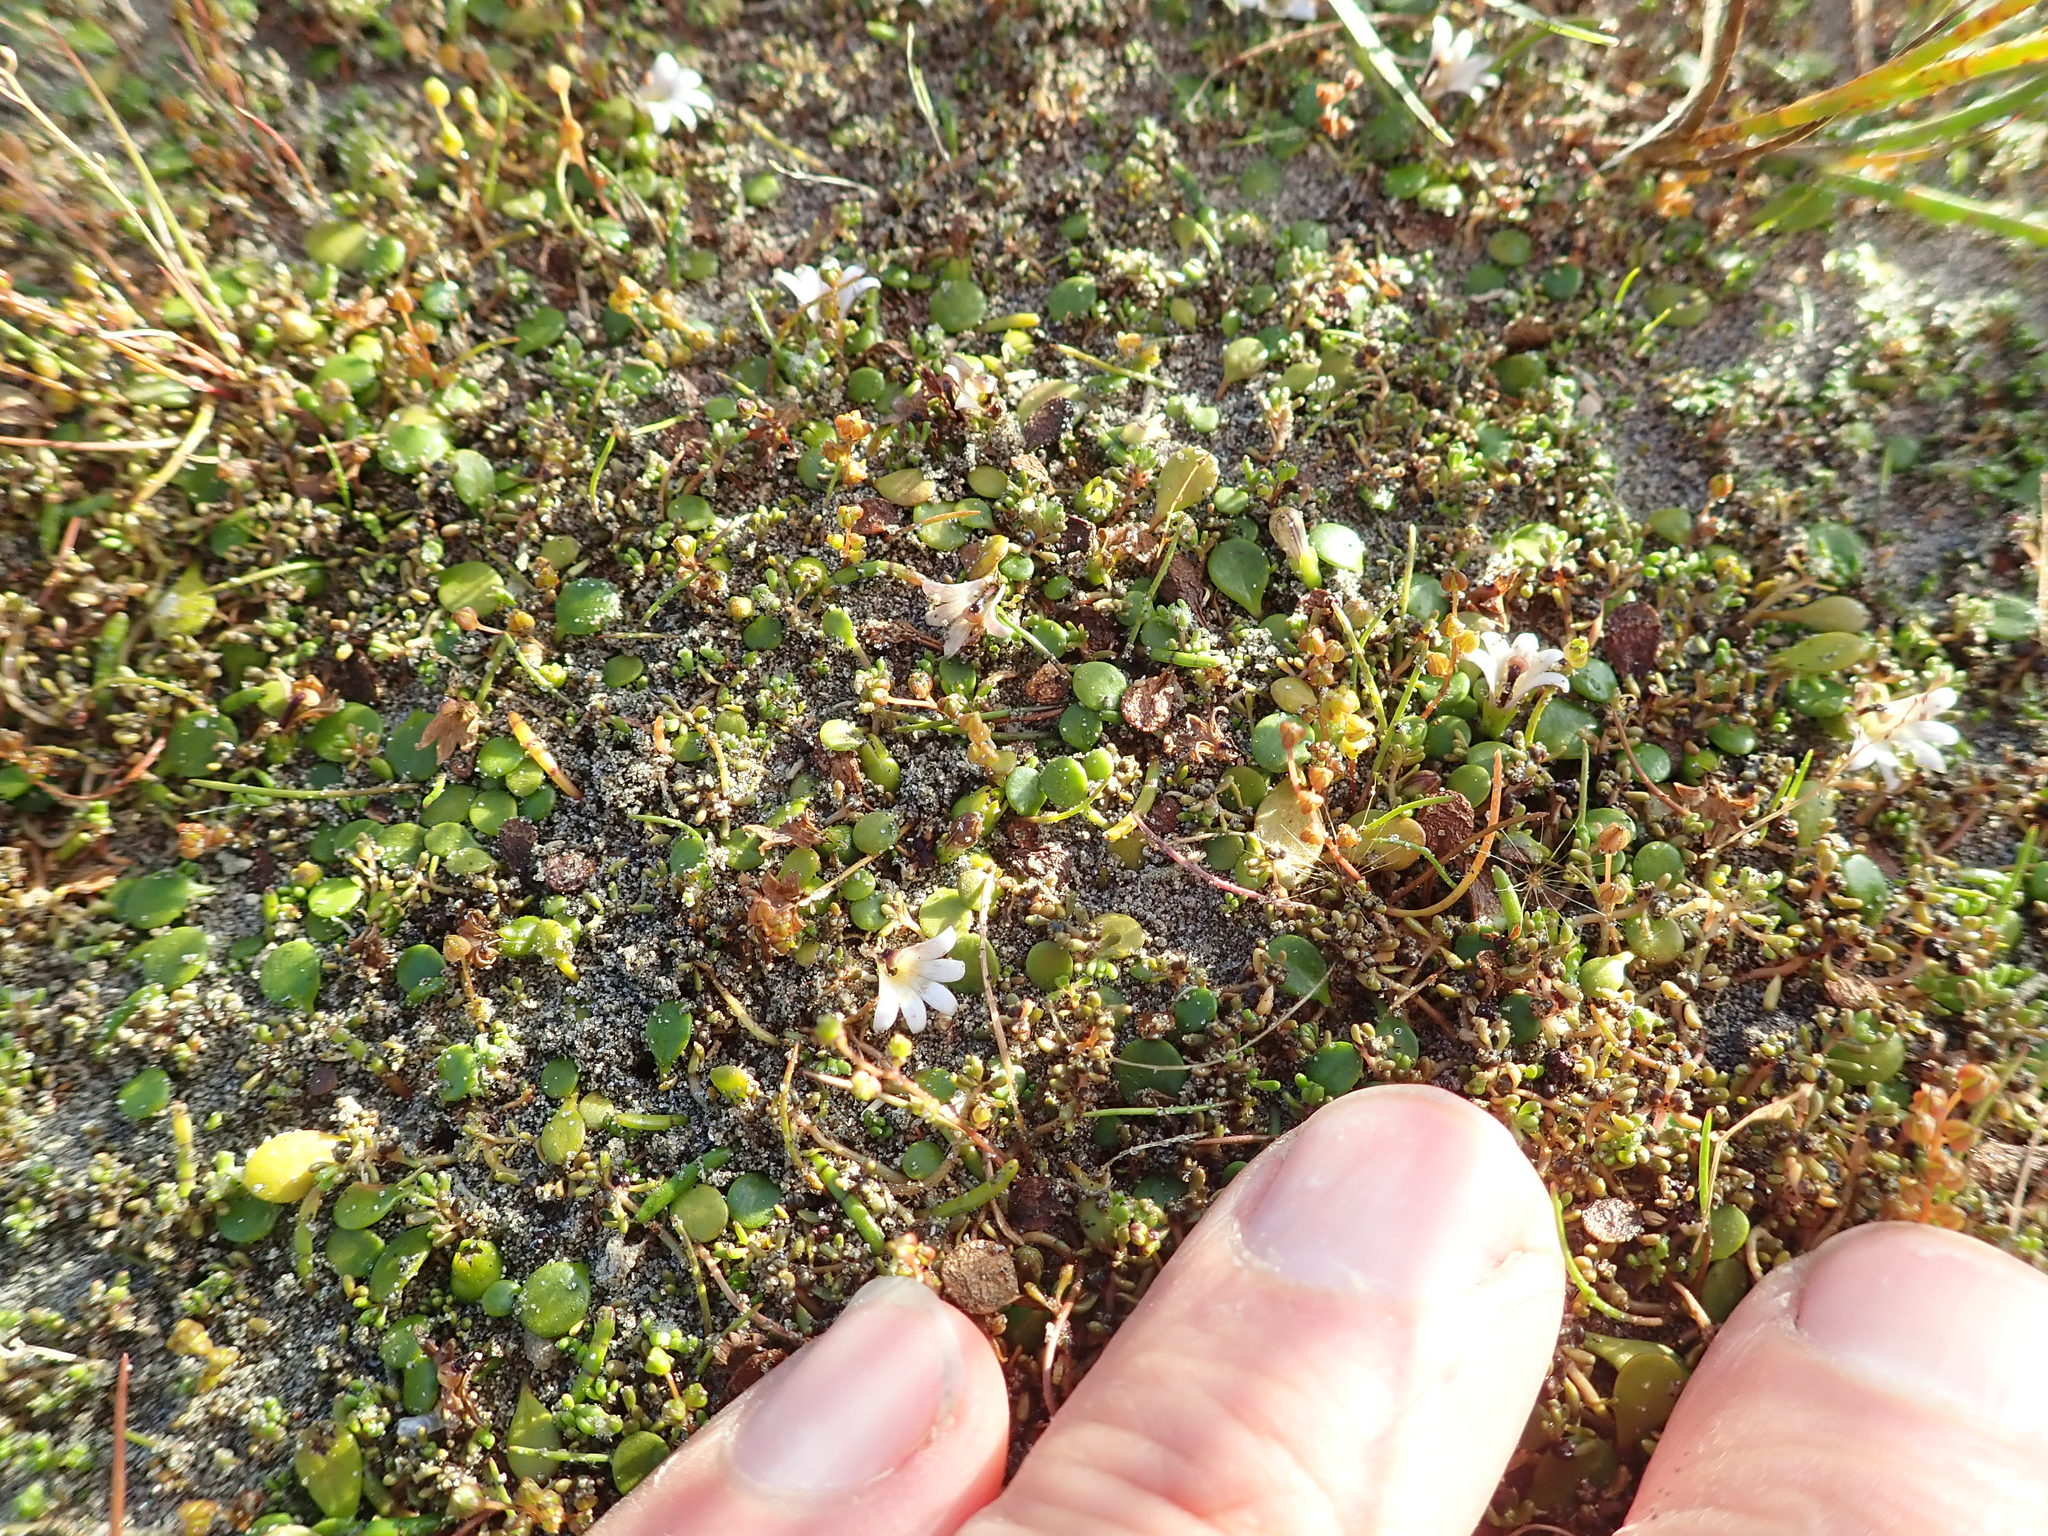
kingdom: Plantae
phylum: Tracheophyta
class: Magnoliopsida
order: Asterales
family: Goodeniaceae
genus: Goodenia
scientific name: Goodenia heenanii
